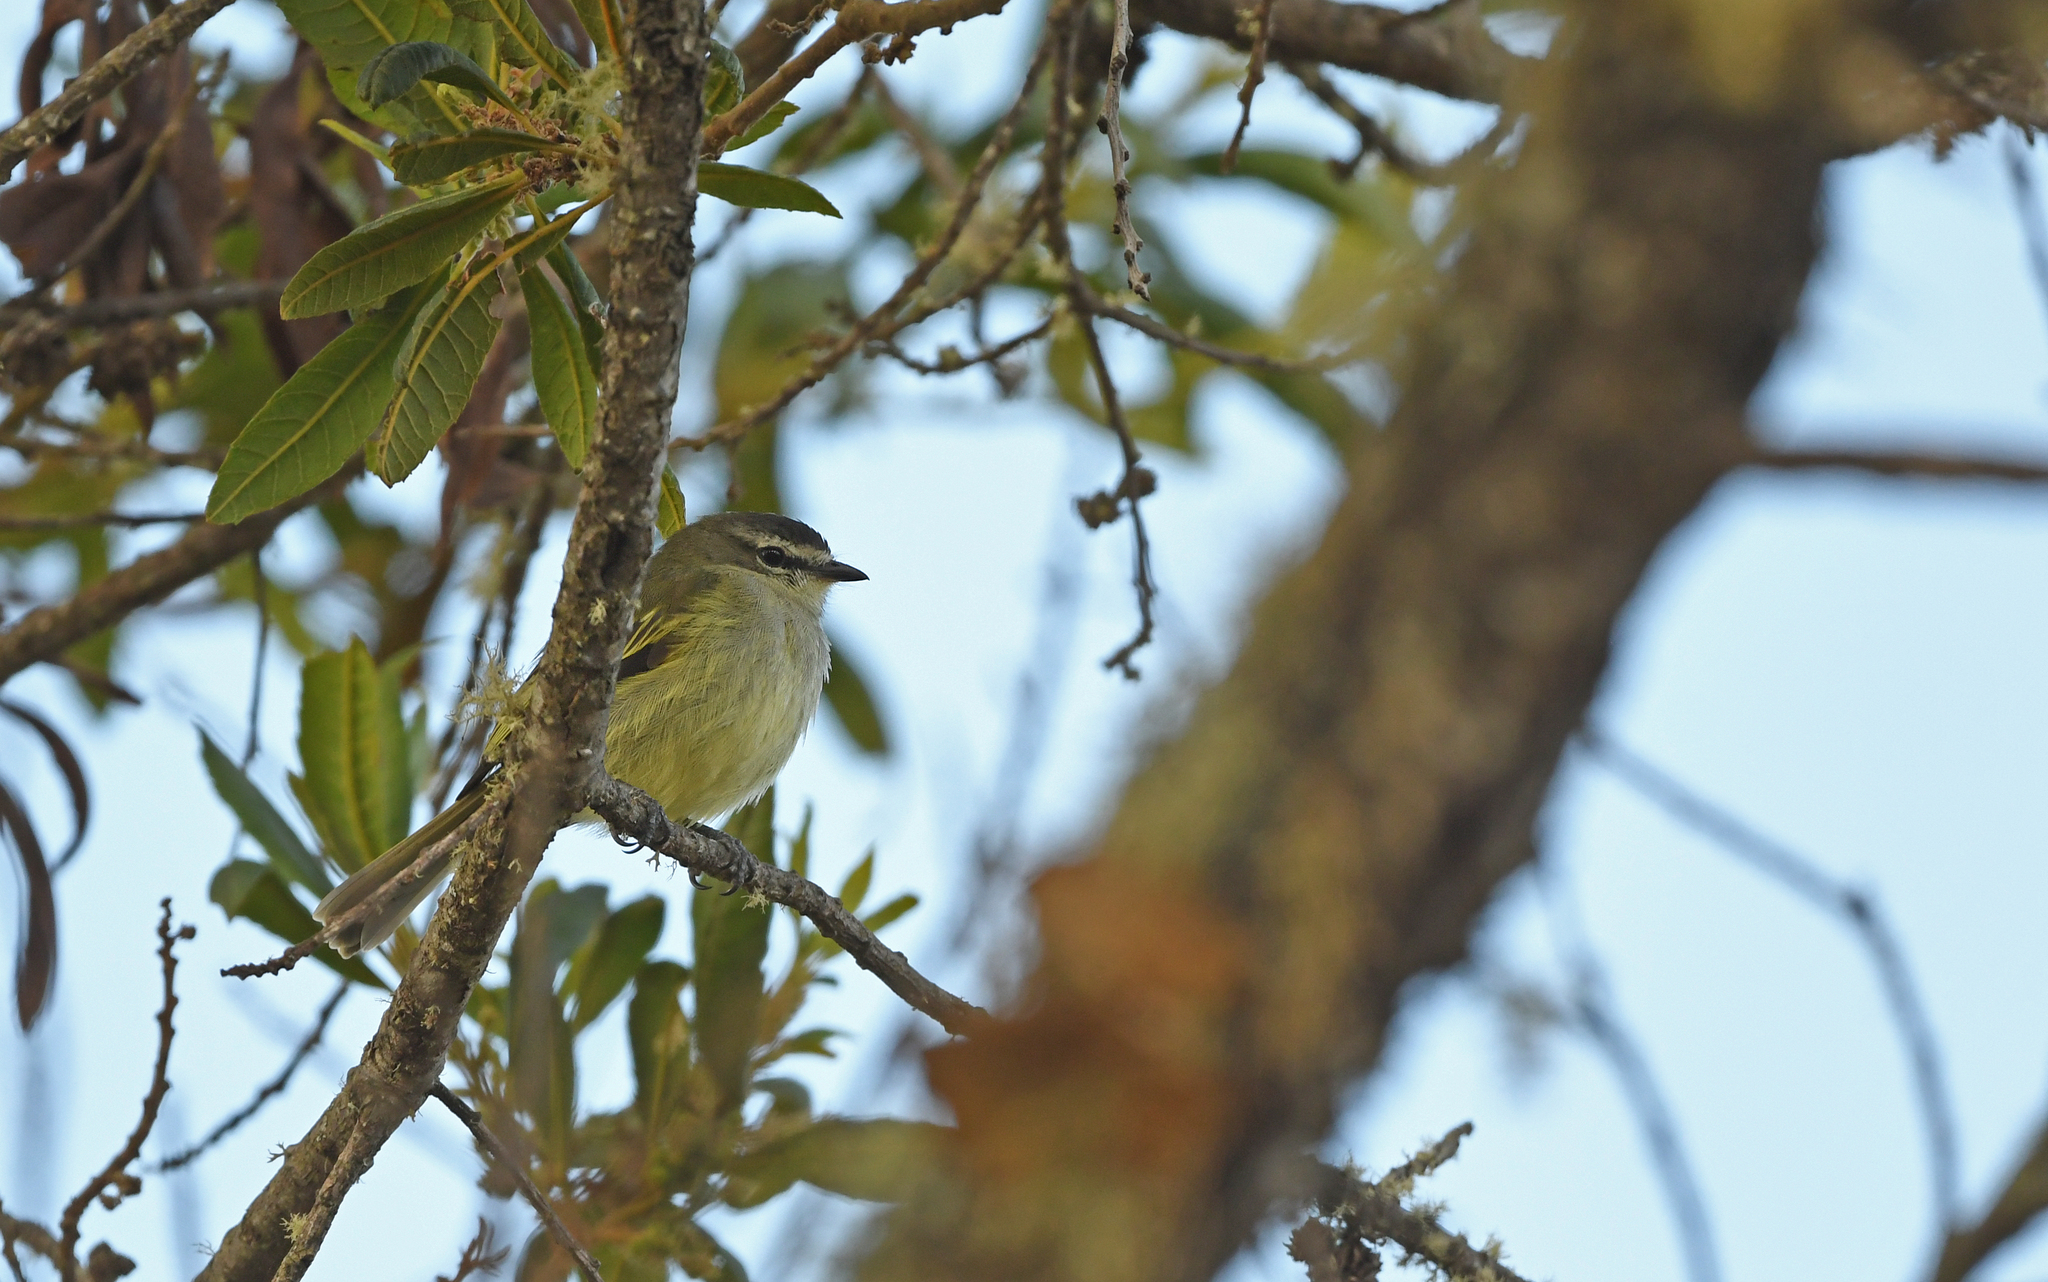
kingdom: Animalia
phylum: Chordata
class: Aves
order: Passeriformes
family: Tyrannidae
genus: Zimmerius
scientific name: Zimmerius vilissimus
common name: Paltry tyrannulet
